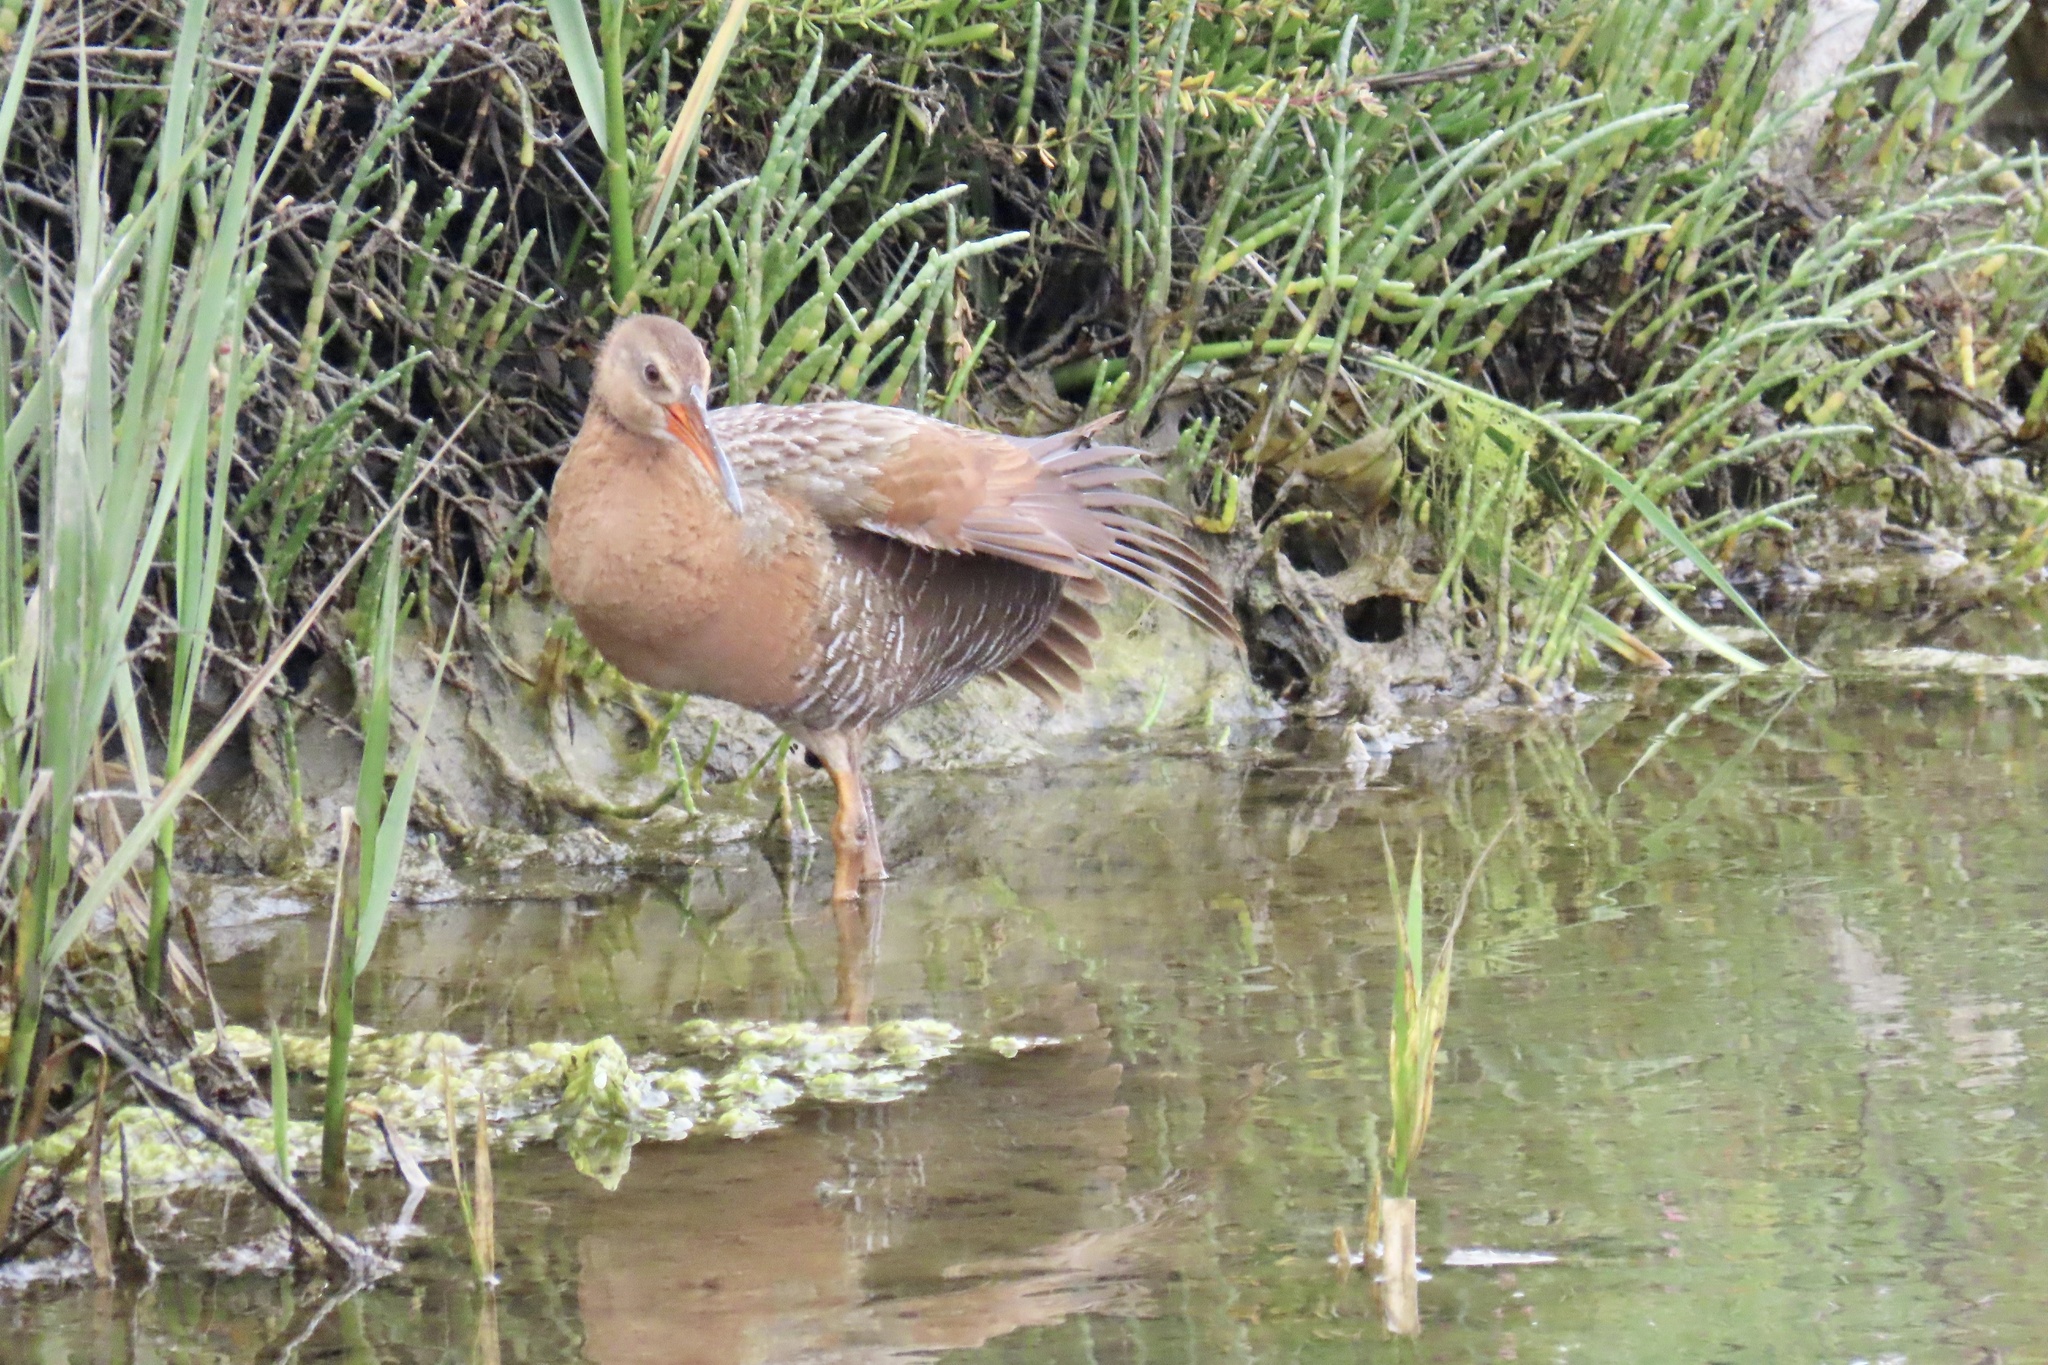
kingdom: Animalia
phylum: Chordata
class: Aves
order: Gruiformes
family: Rallidae
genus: Rallus
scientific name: Rallus obsoletus
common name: Ridgway's rail
